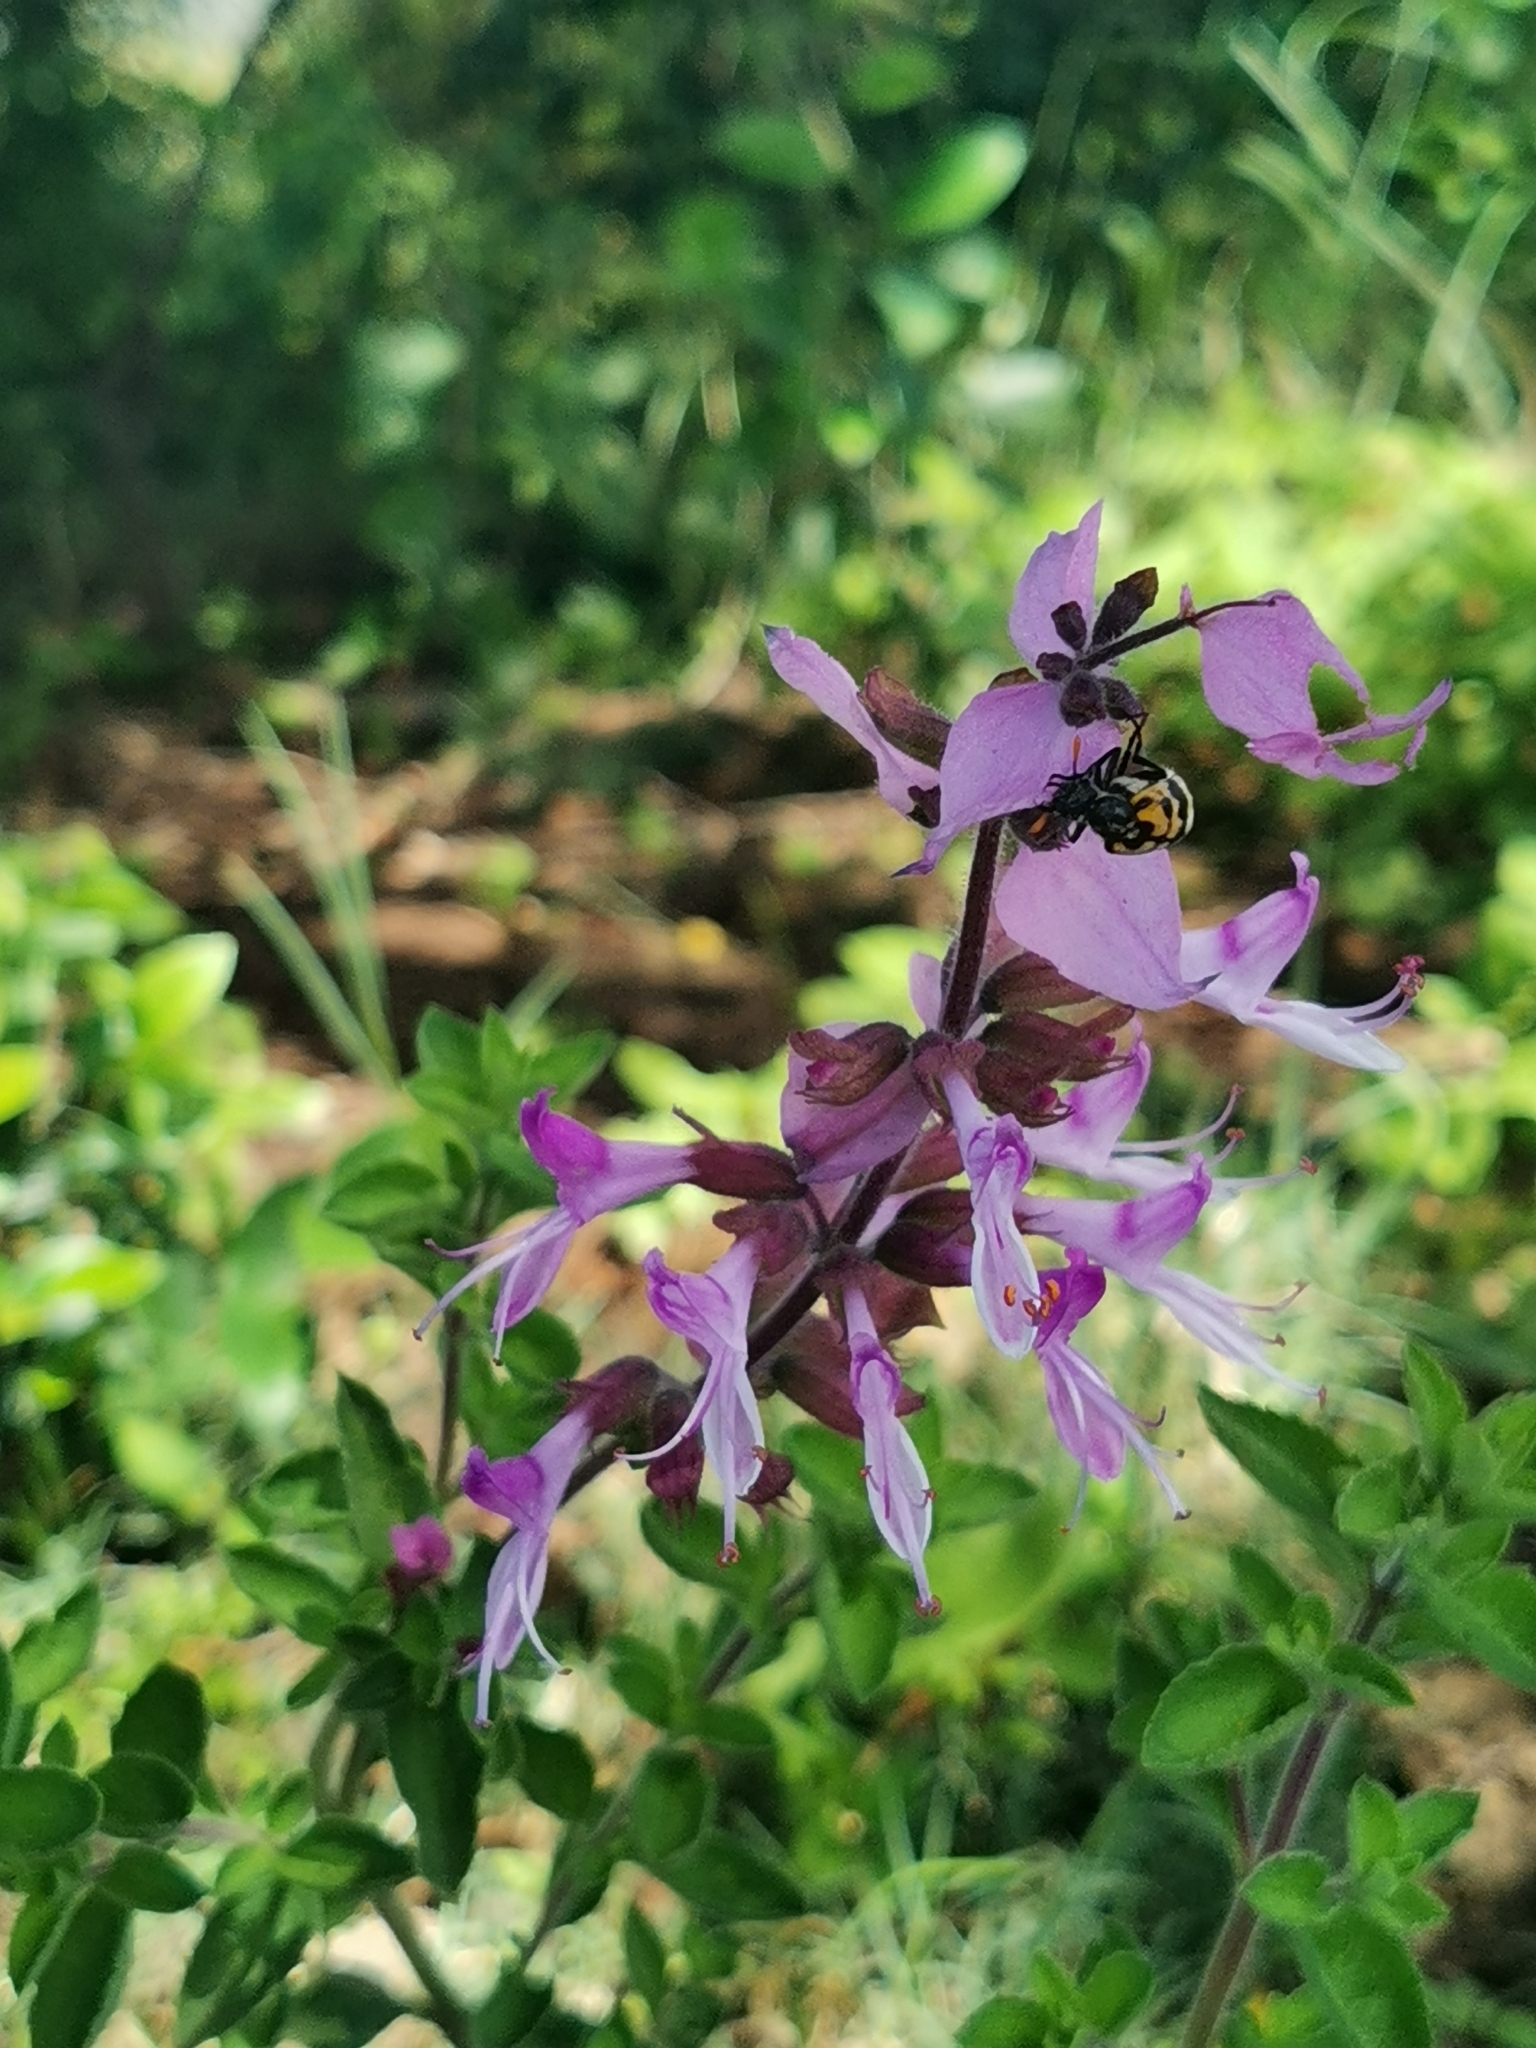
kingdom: Plantae
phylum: Tracheophyta
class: Magnoliopsida
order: Lamiales
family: Lamiaceae
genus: Syncolostemon
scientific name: Syncolostemon transvaalensis
